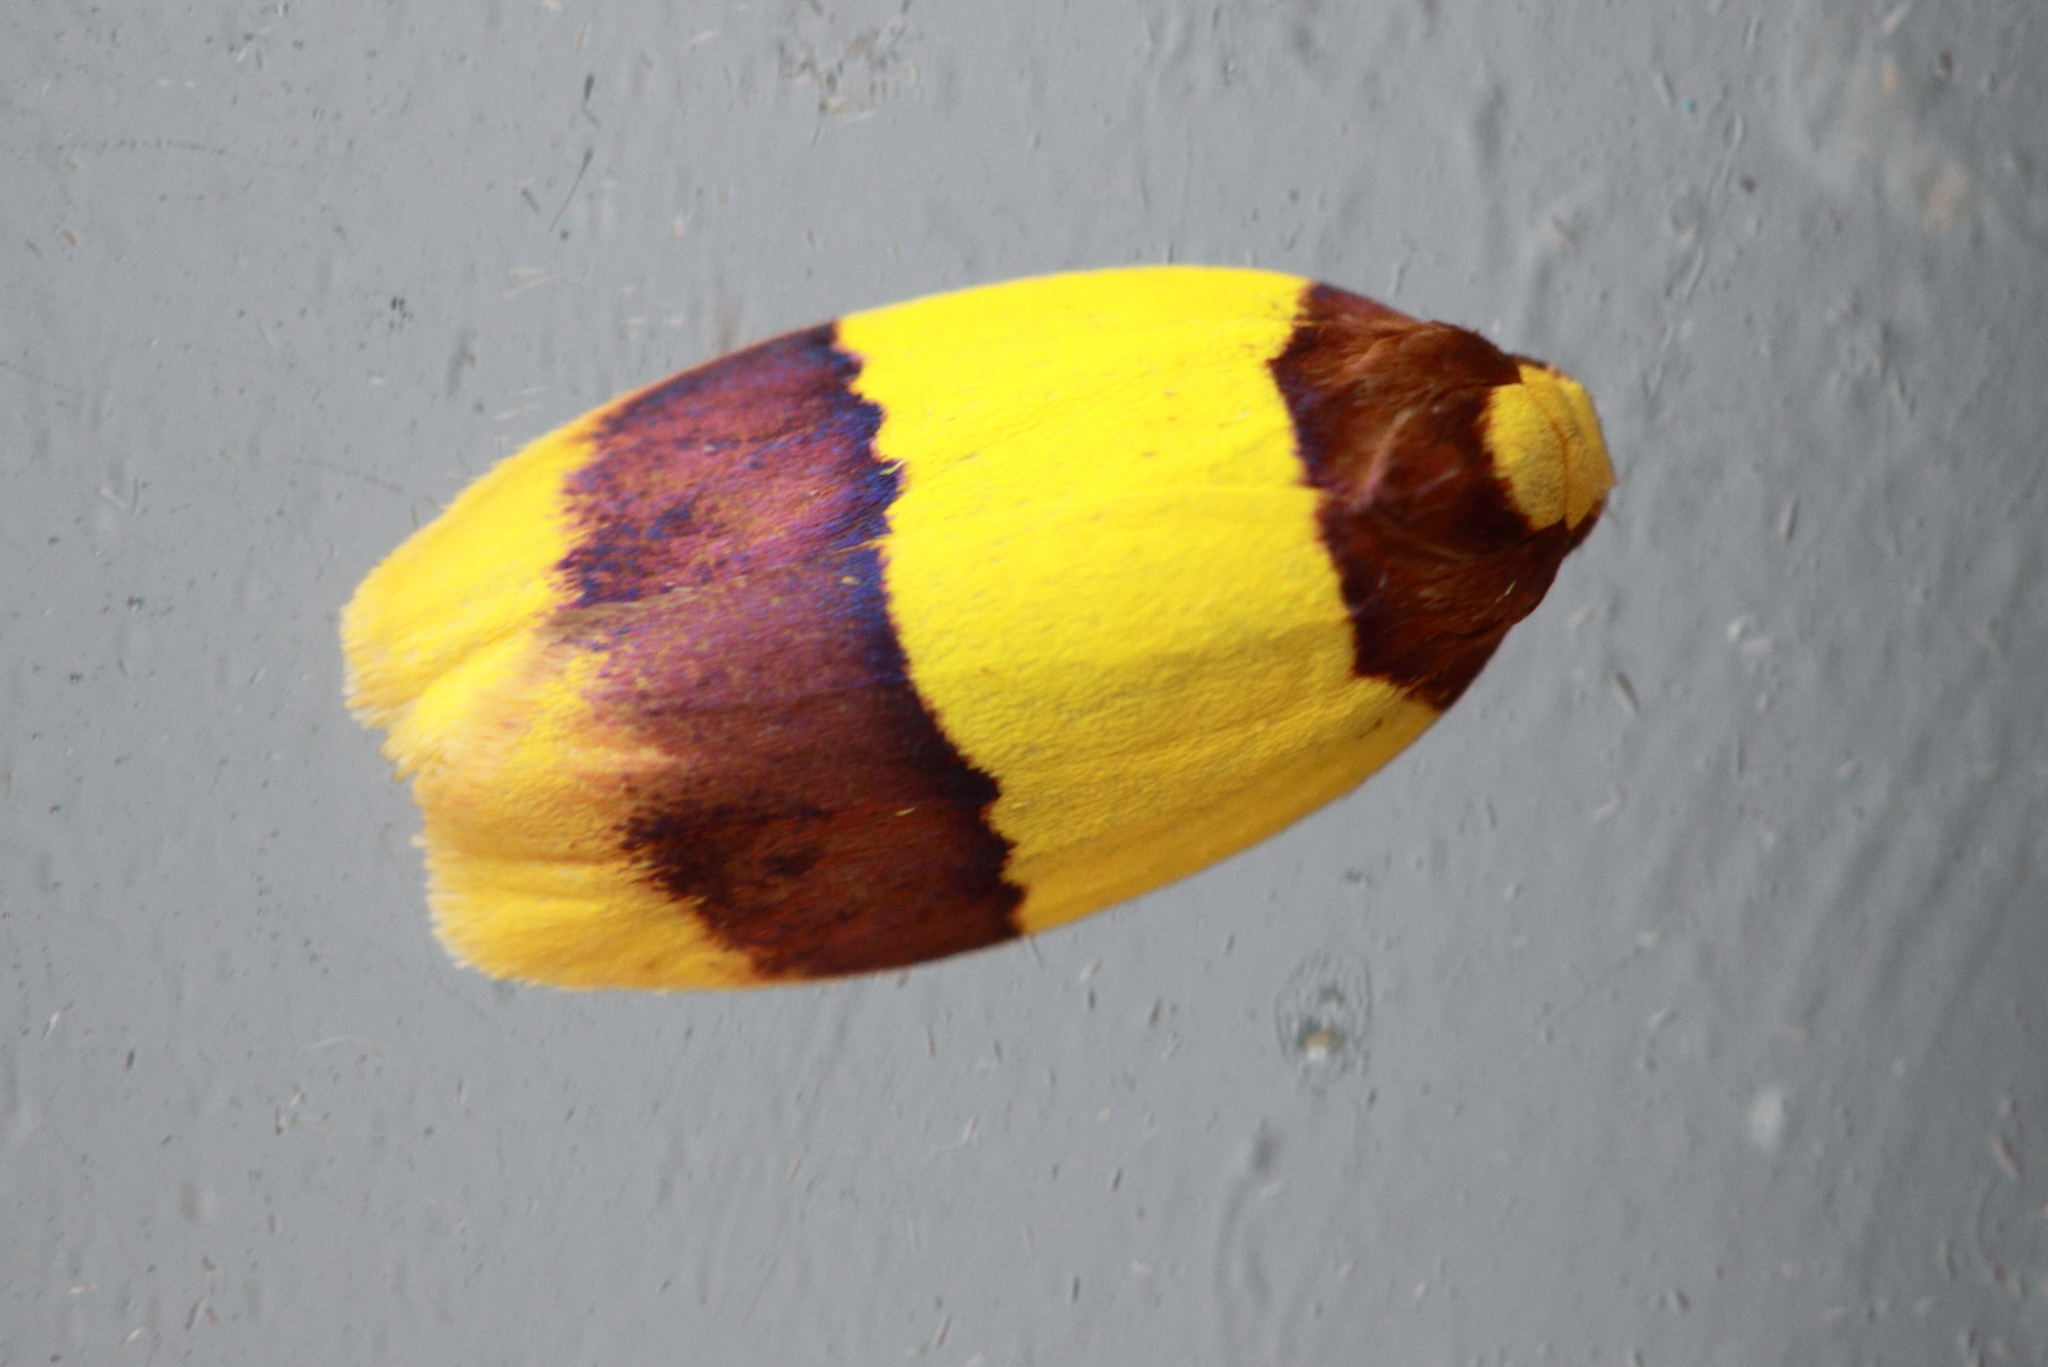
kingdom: Animalia
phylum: Arthropoda
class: Insecta
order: Lepidoptera
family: Erebidae
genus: Heterallactis
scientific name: Heterallactis euchrysa
